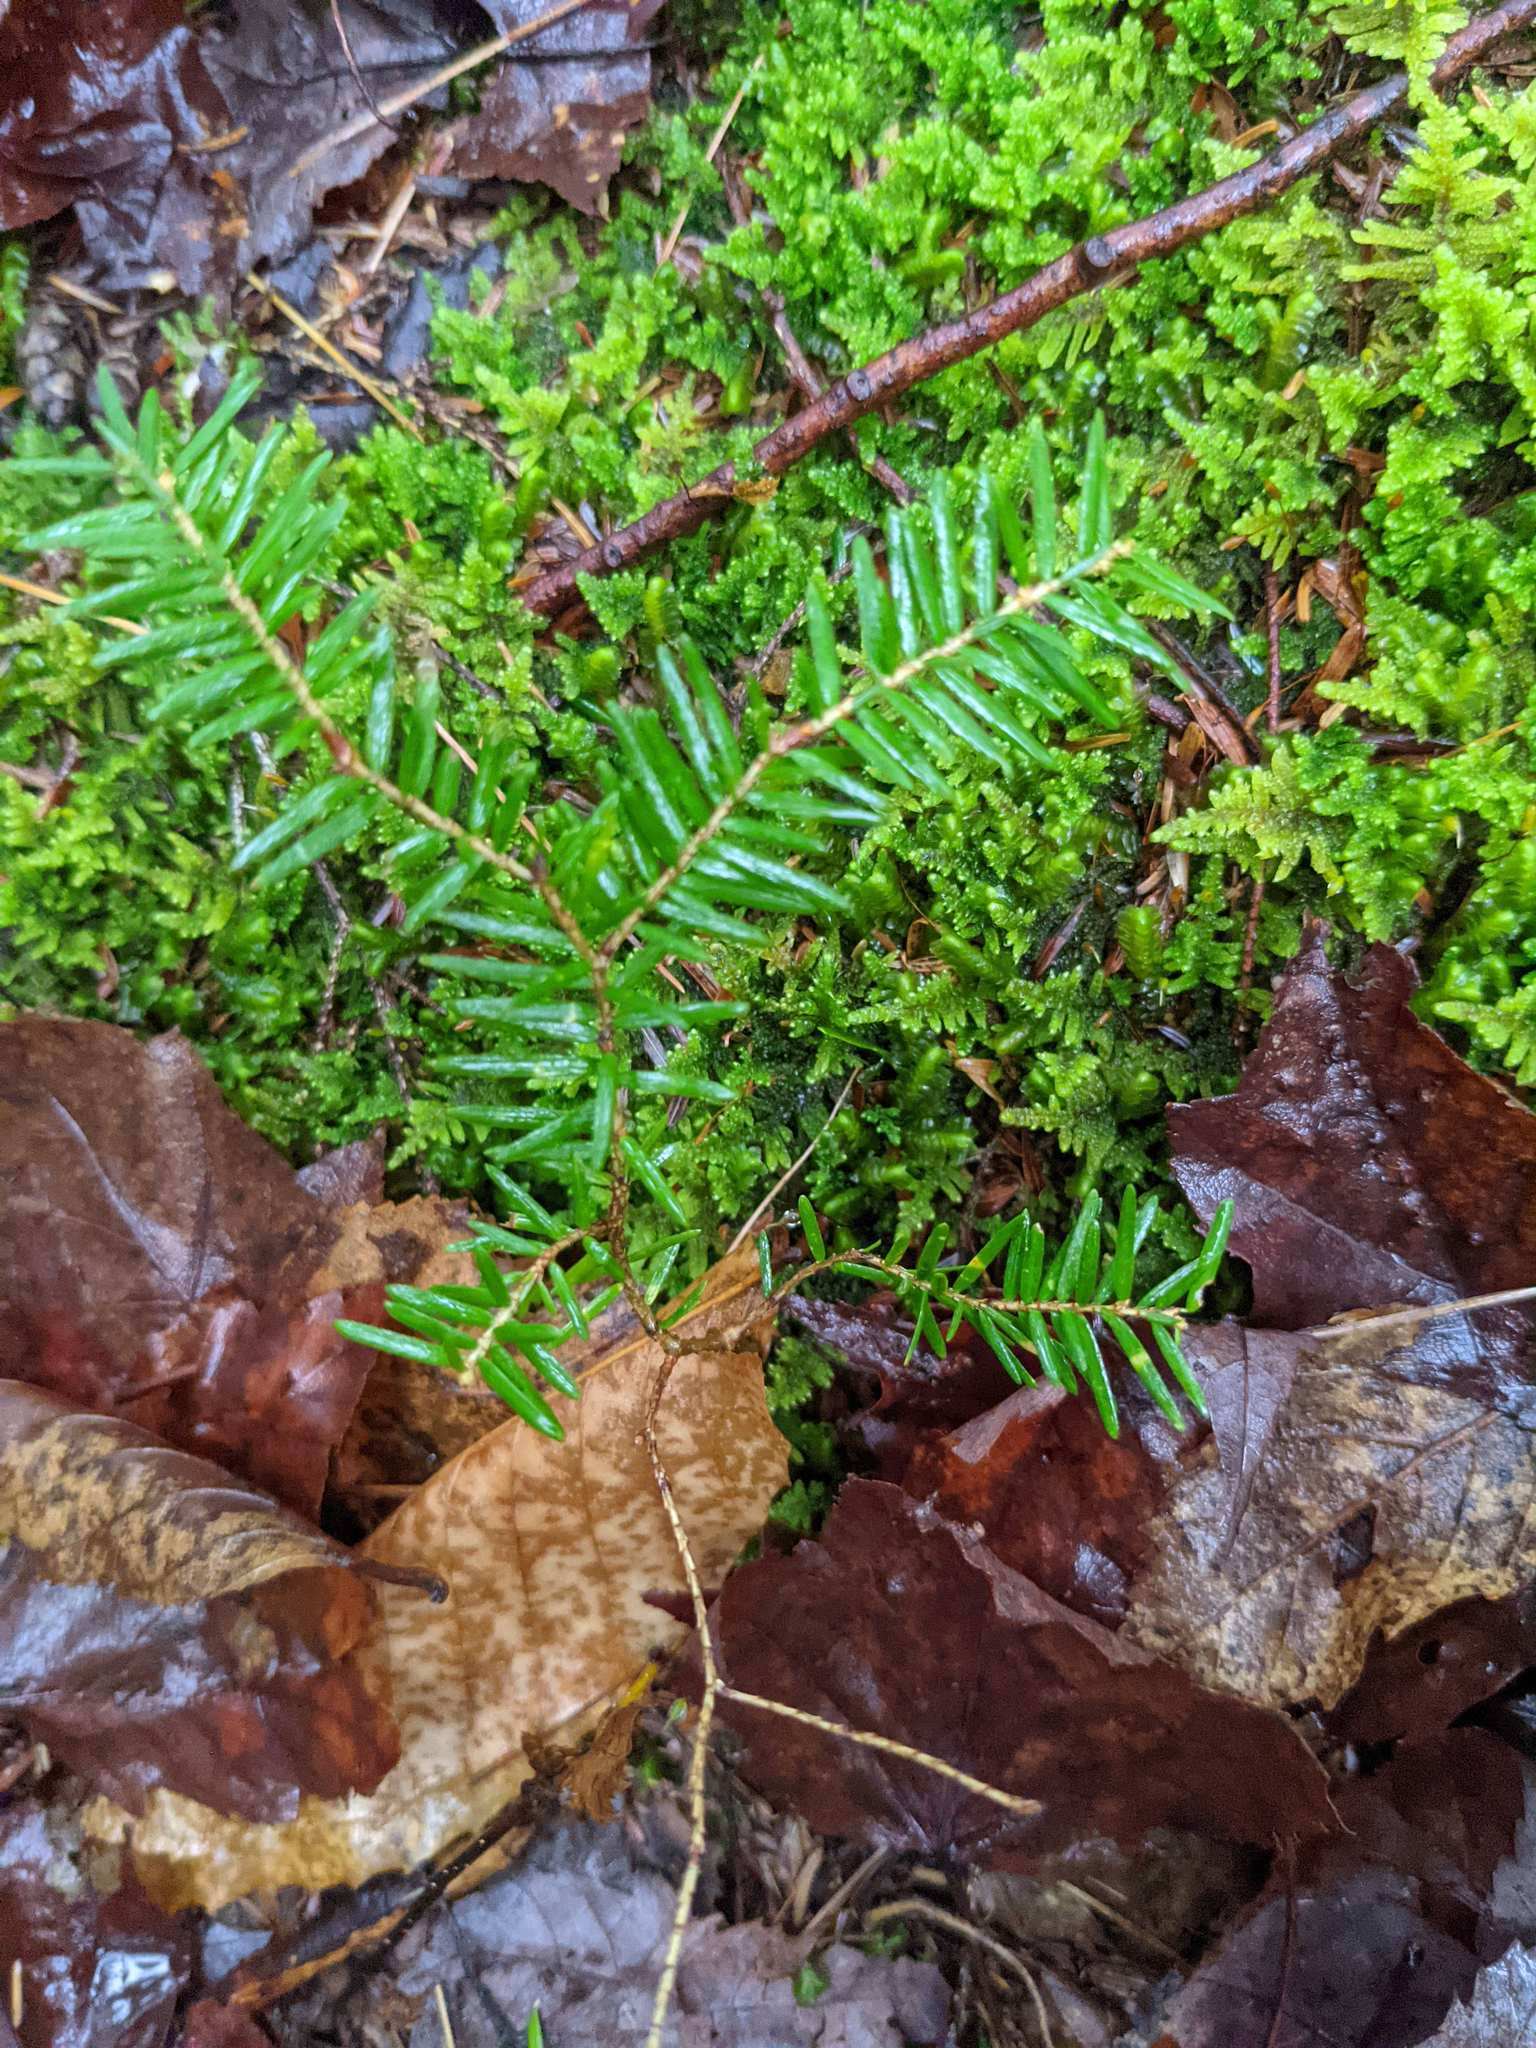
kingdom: Plantae
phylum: Tracheophyta
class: Pinopsida
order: Pinales
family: Pinaceae
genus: Tsuga
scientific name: Tsuga canadensis
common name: Eastern hemlock
